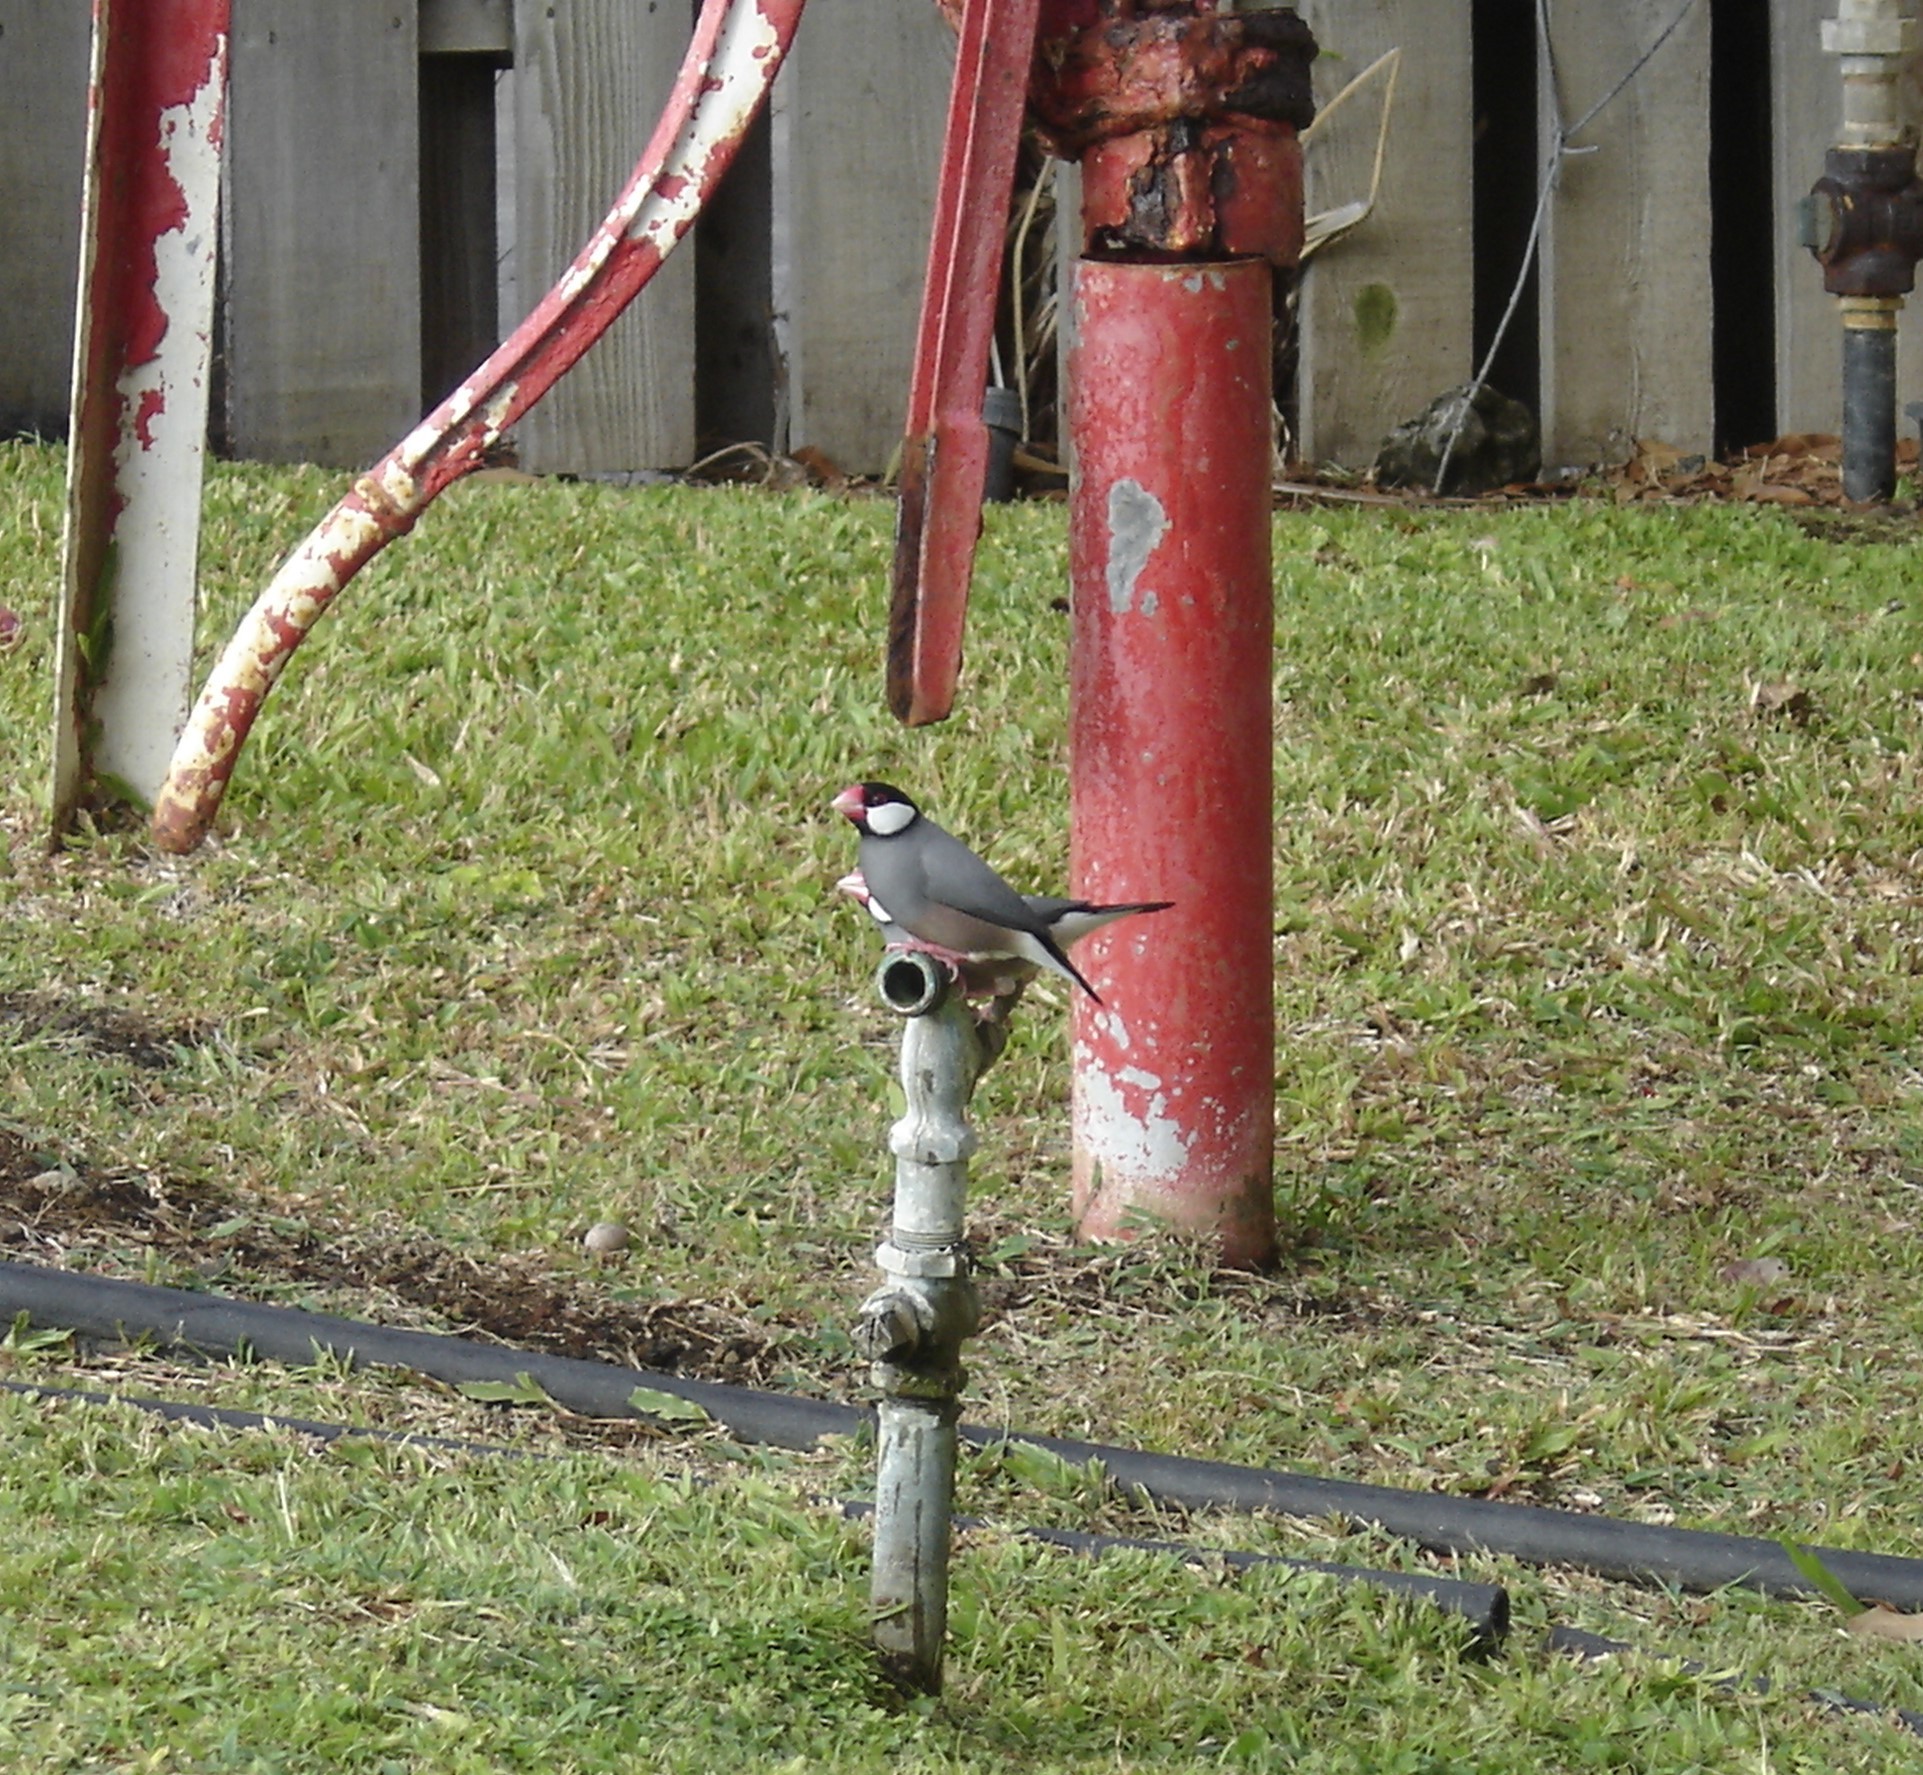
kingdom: Animalia
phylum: Chordata
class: Aves
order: Passeriformes
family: Estrildidae
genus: Lonchura
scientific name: Lonchura oryzivora
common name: Java sparrow
